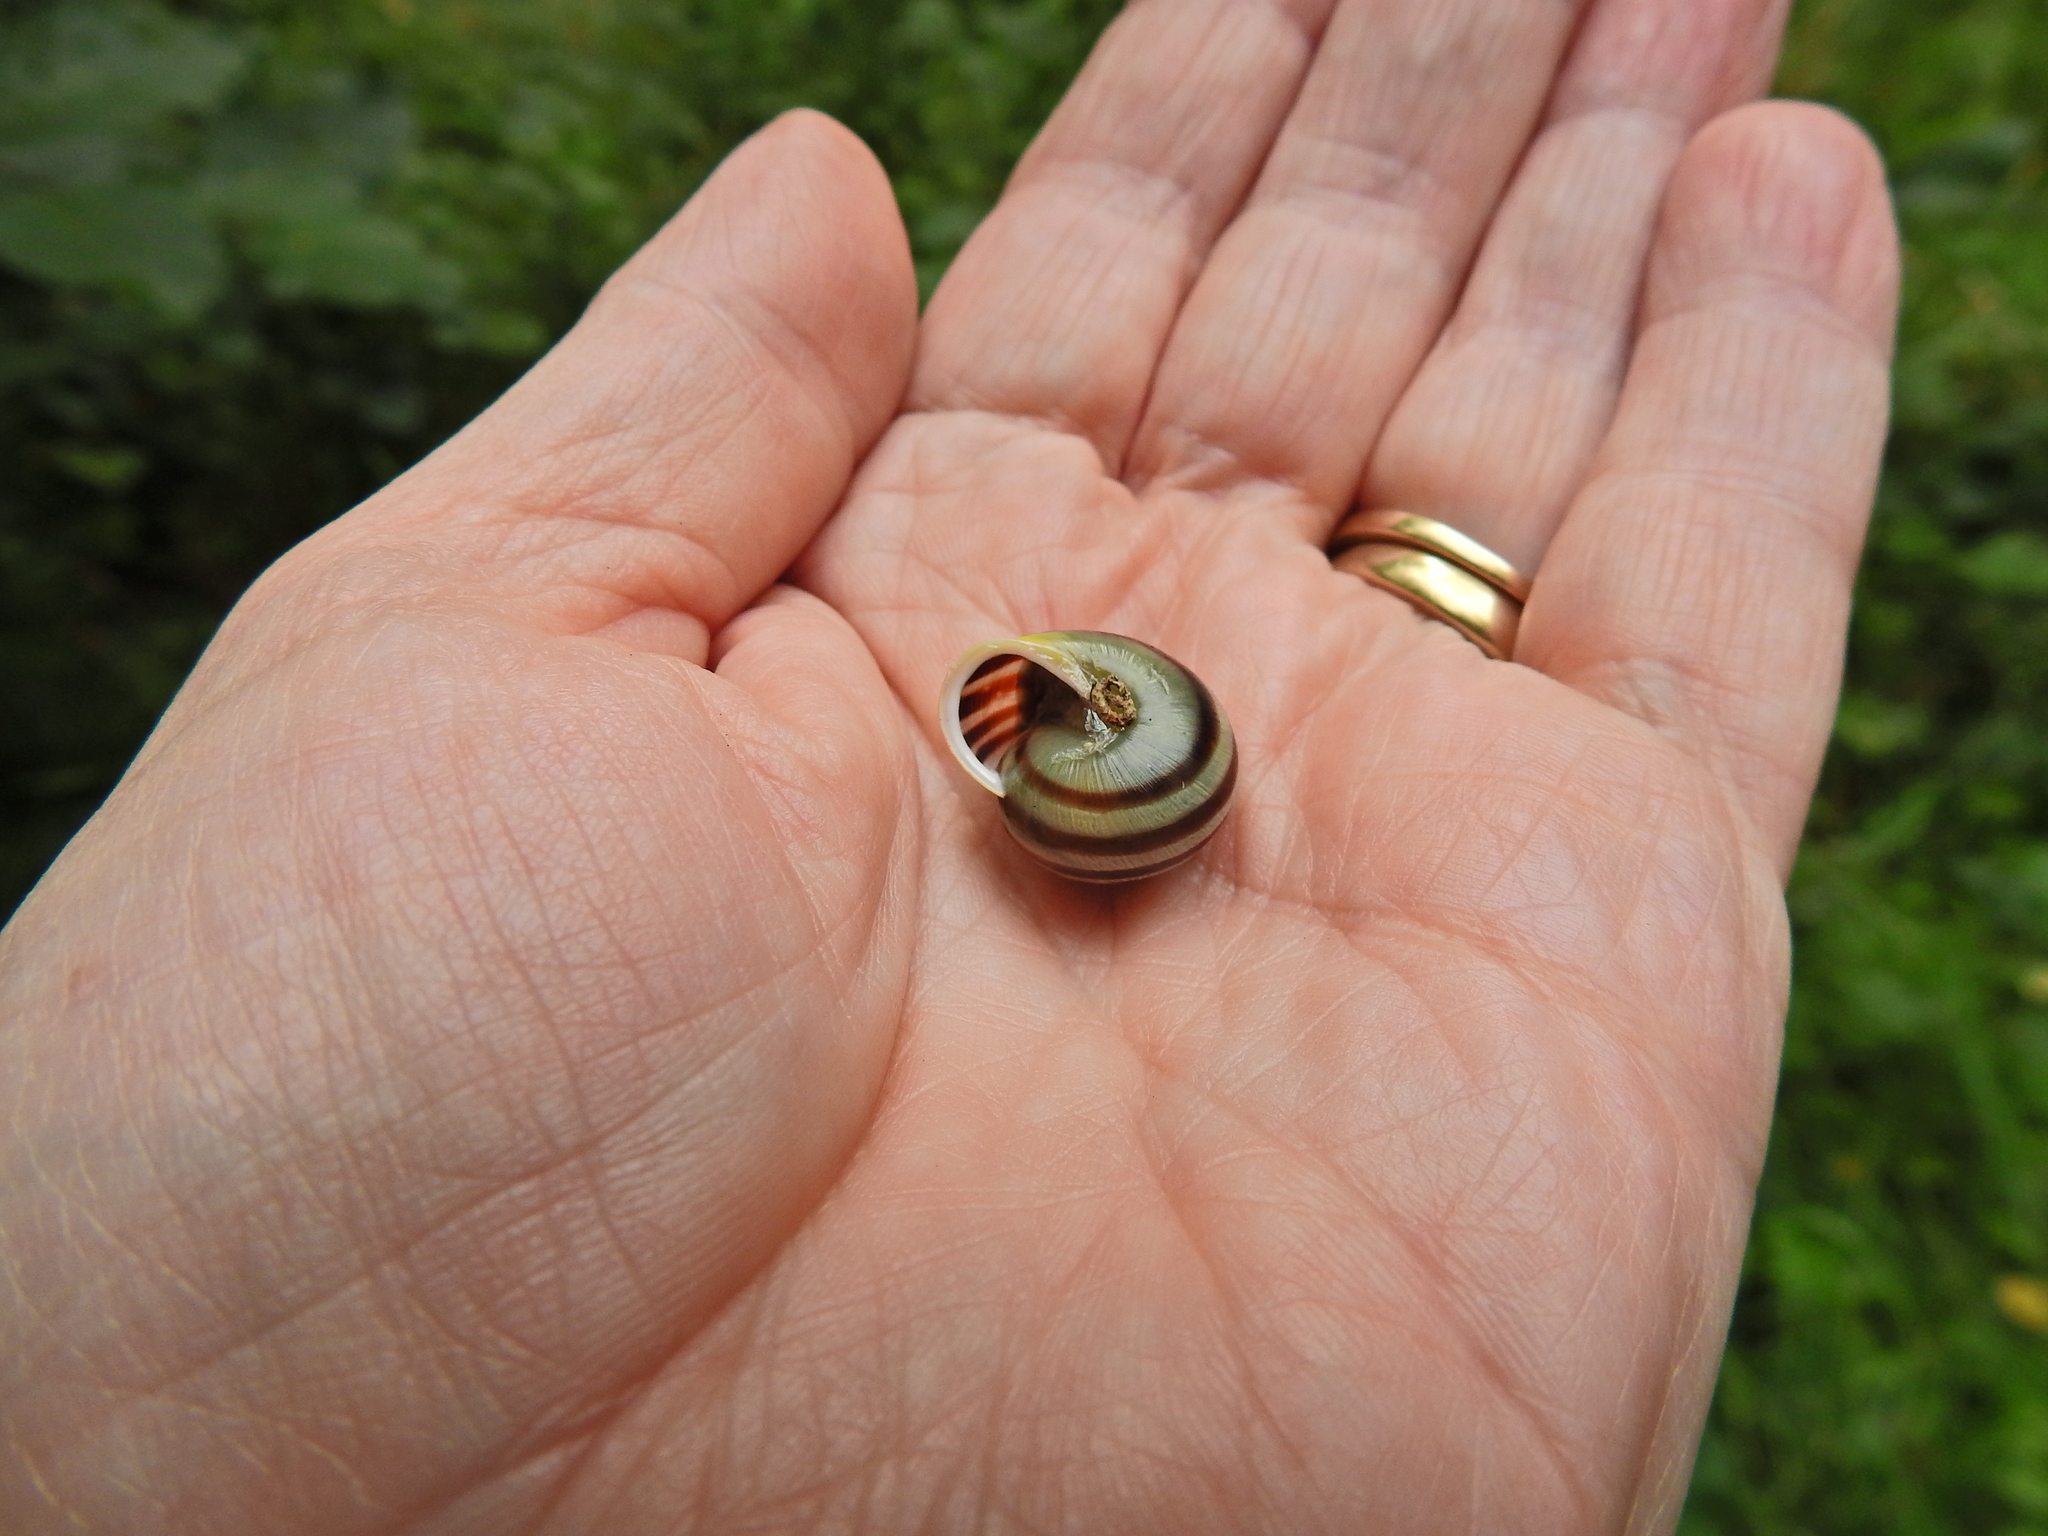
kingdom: Animalia
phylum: Mollusca
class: Gastropoda
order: Stylommatophora
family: Helicidae
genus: Cepaea
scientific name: Cepaea hortensis
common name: White-lip gardensnail
